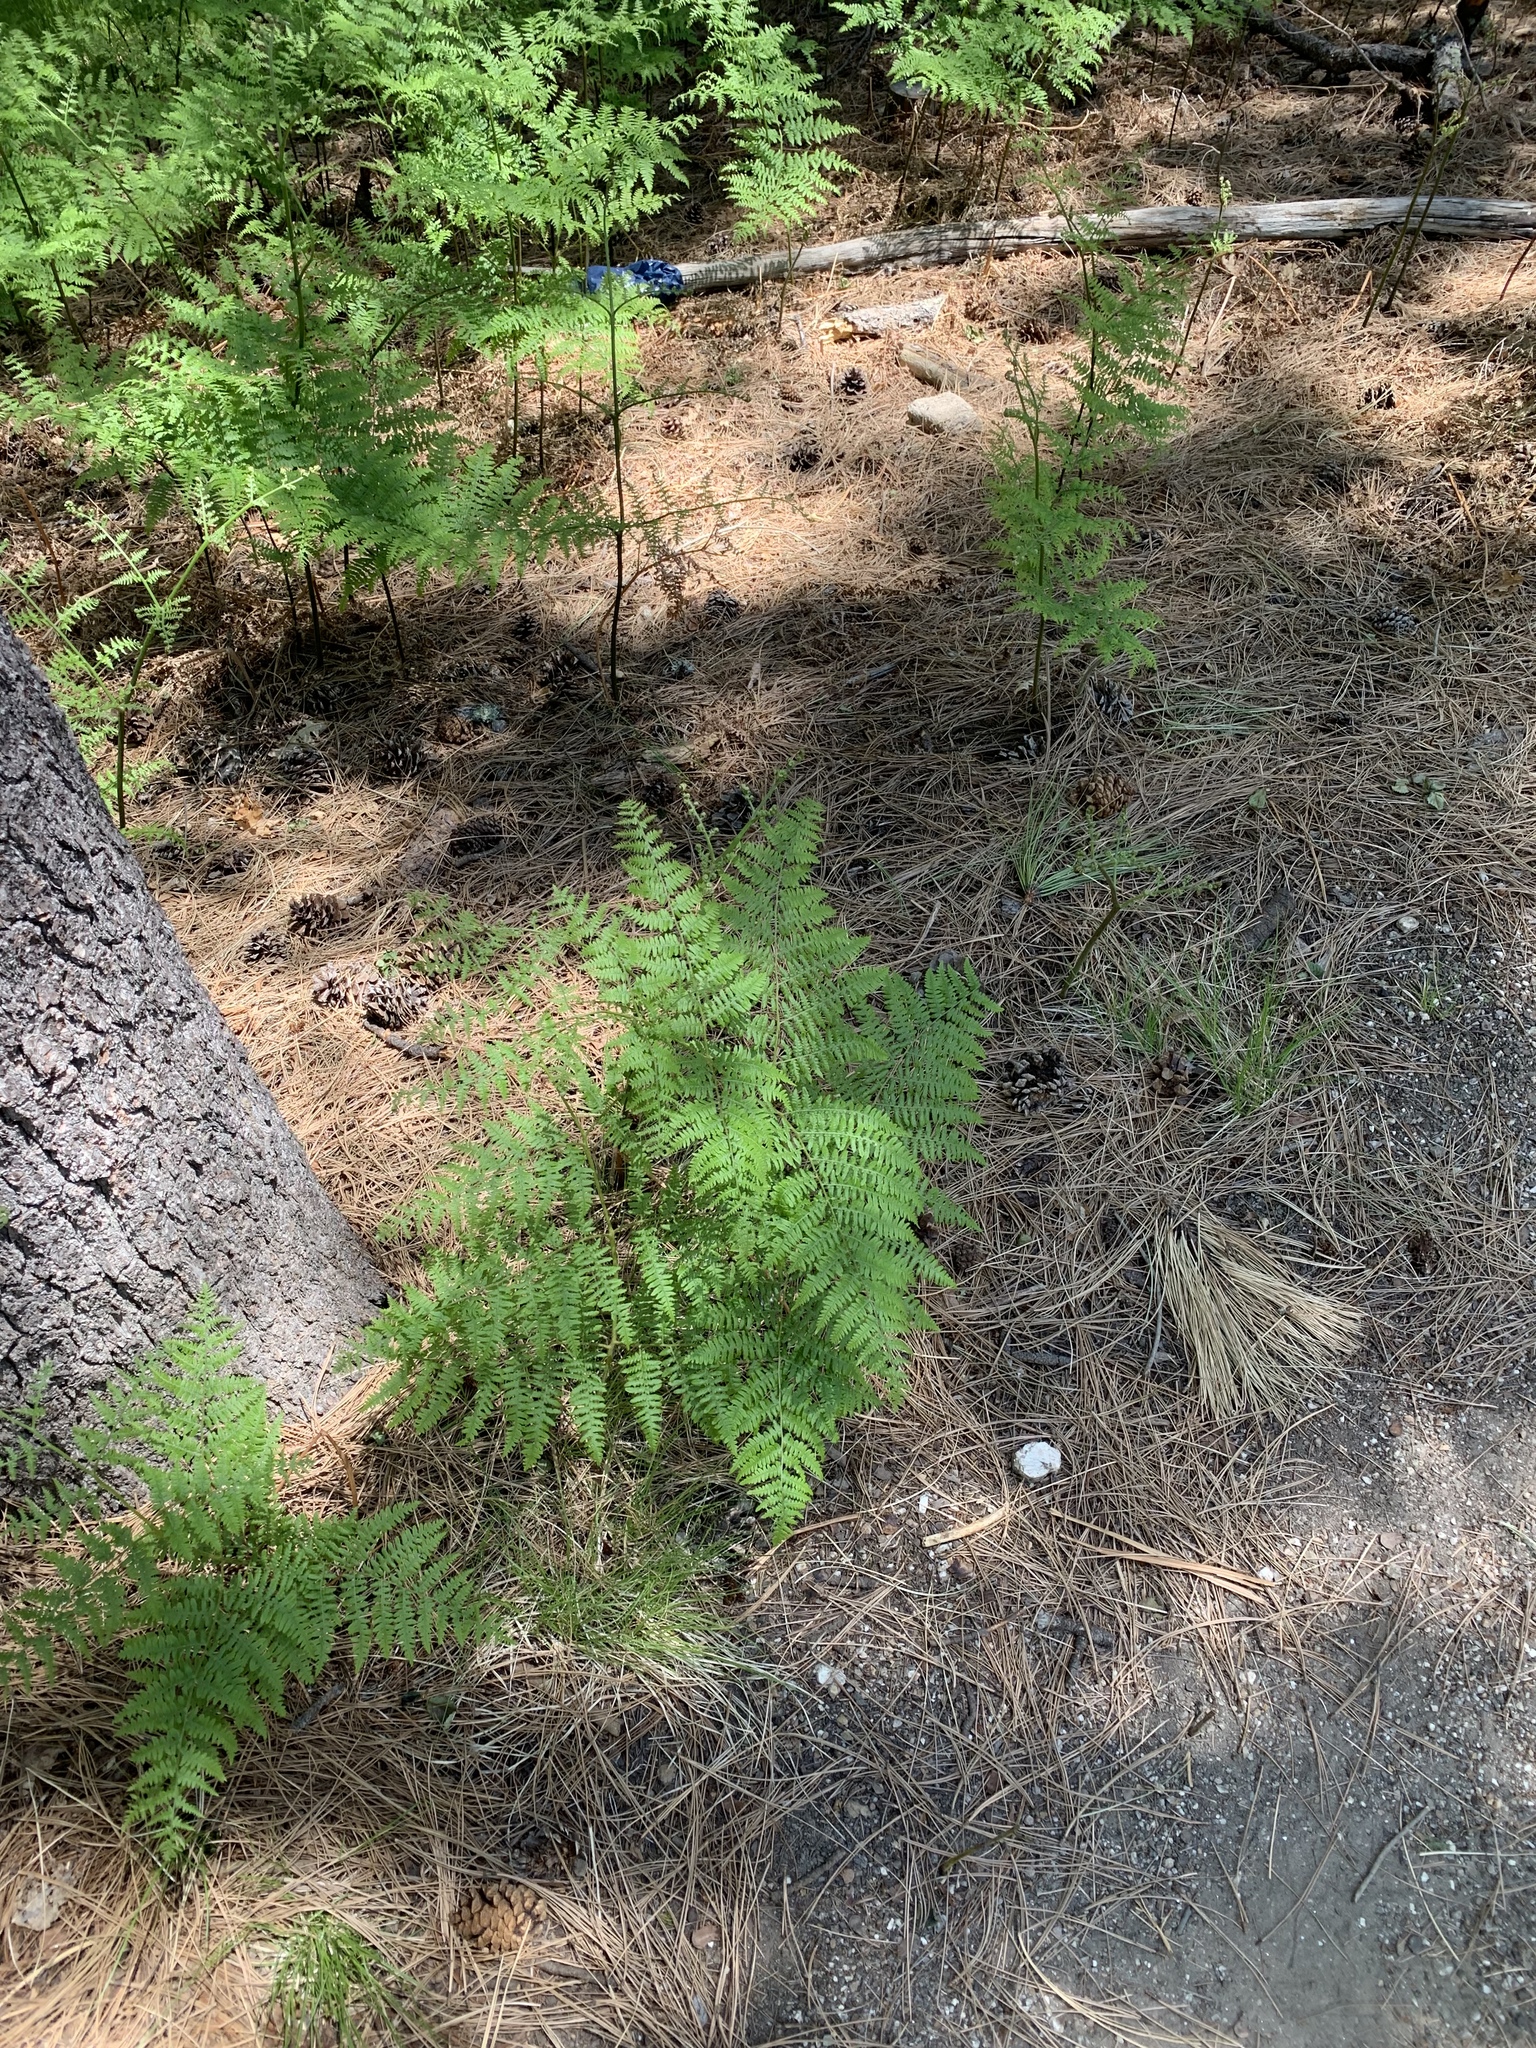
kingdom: Plantae
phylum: Tracheophyta
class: Polypodiopsida
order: Polypodiales
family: Dennstaedtiaceae
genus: Pteridium
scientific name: Pteridium aquilinum
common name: Bracken
